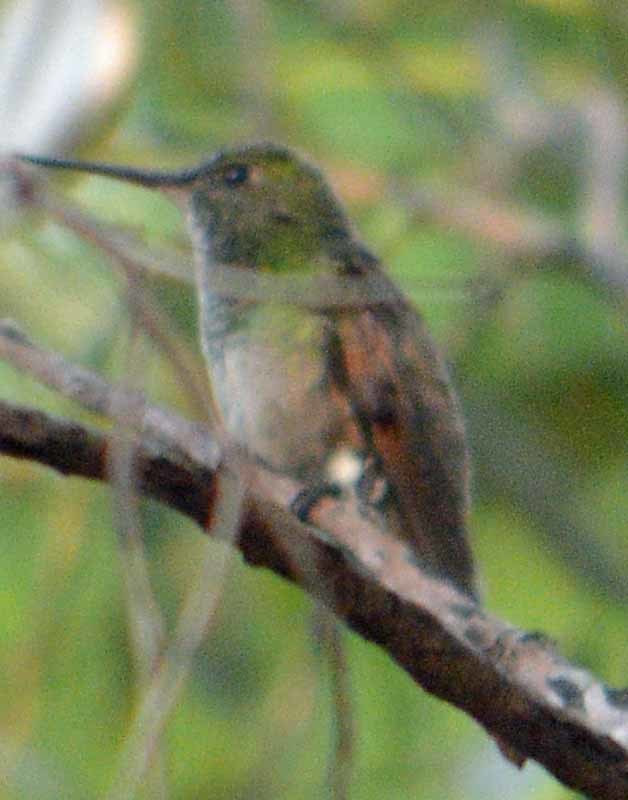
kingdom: Animalia
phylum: Chordata
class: Aves
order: Apodiformes
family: Trochilidae
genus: Saucerottia
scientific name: Saucerottia beryllina
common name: Berylline hummingbird
